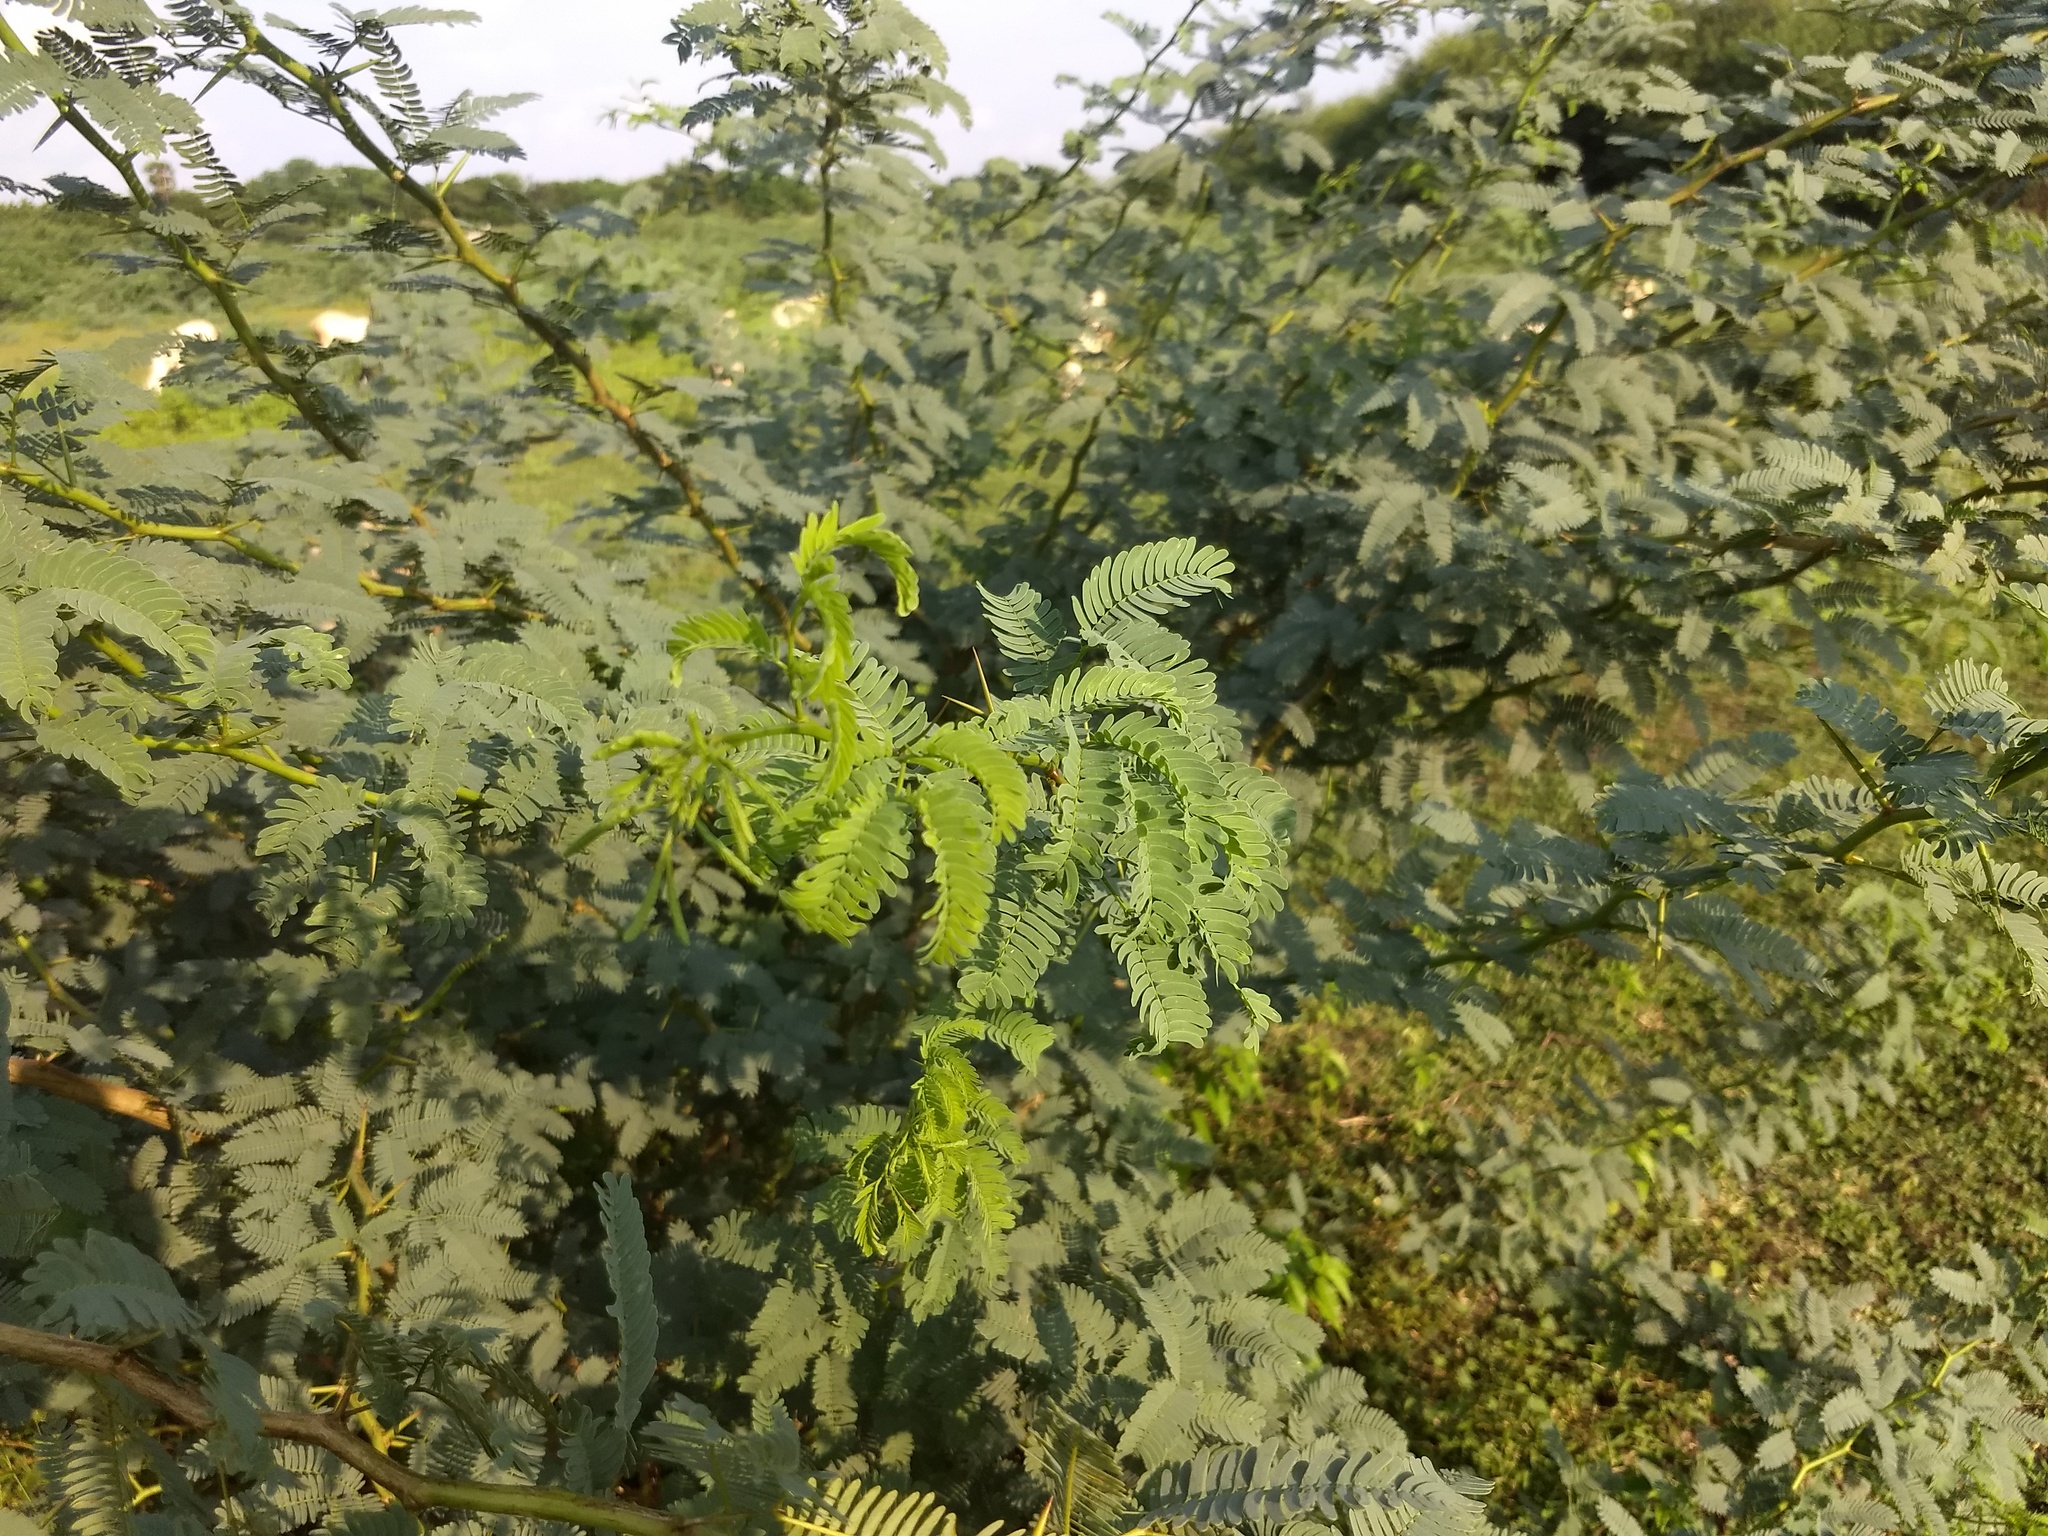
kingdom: Plantae
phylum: Tracheophyta
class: Magnoliopsida
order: Fabales
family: Fabaceae
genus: Prosopis
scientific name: Prosopis juliflora
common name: Mesquite
